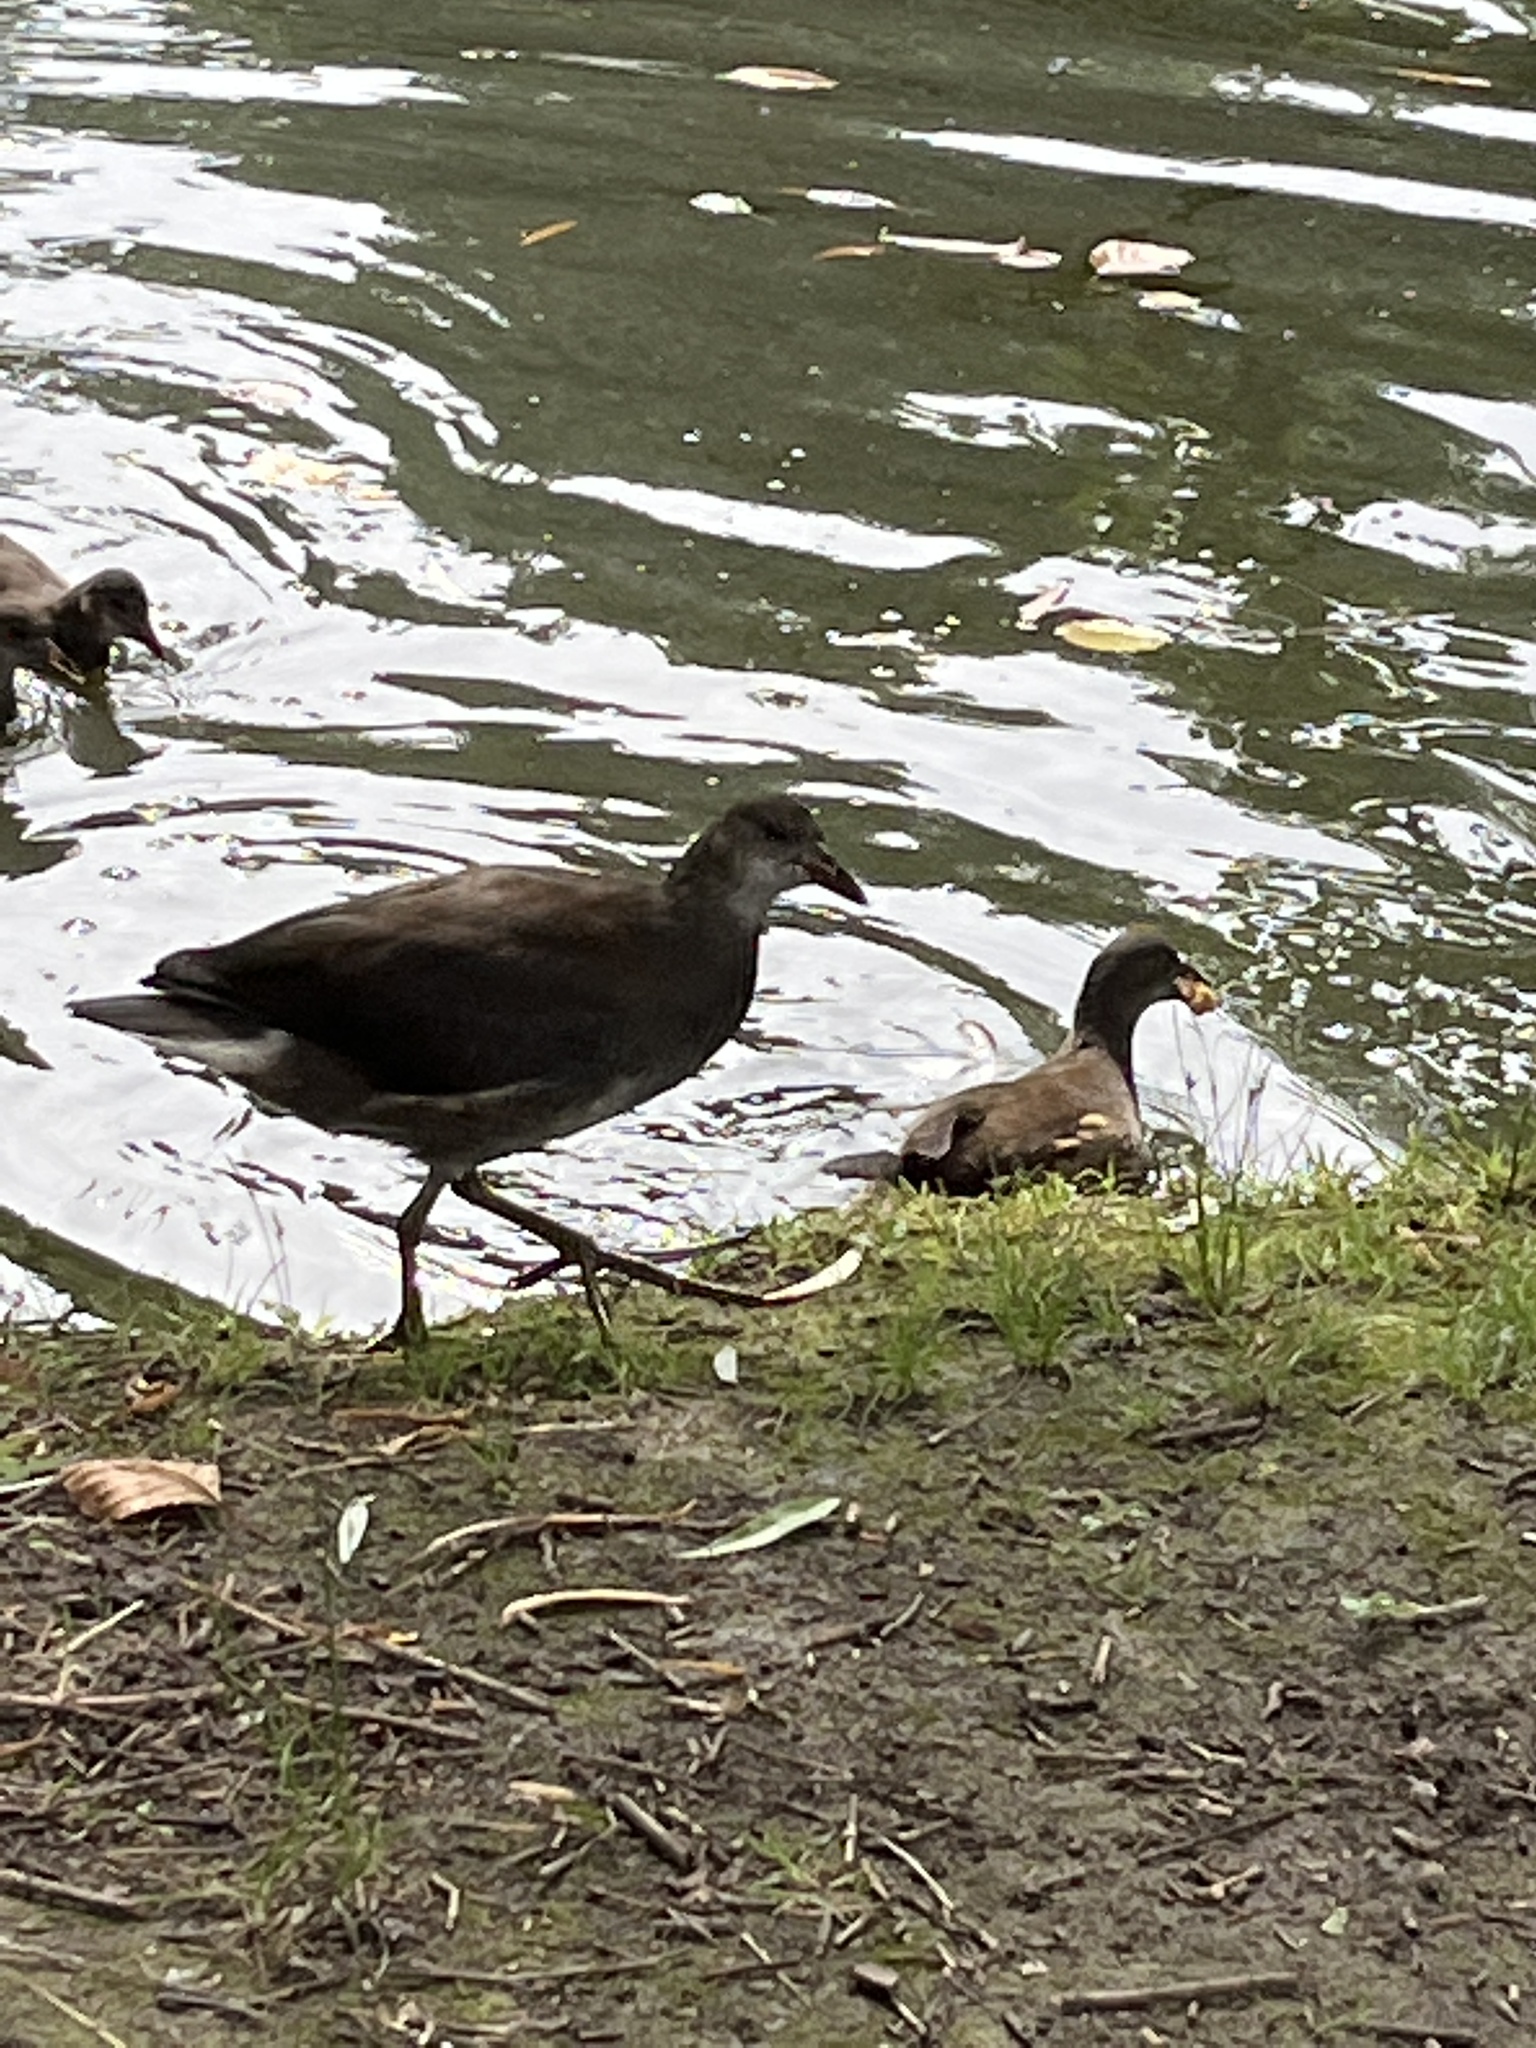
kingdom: Animalia
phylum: Chordata
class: Aves
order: Gruiformes
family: Rallidae
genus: Gallinula
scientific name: Gallinula chloropus
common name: Common moorhen
